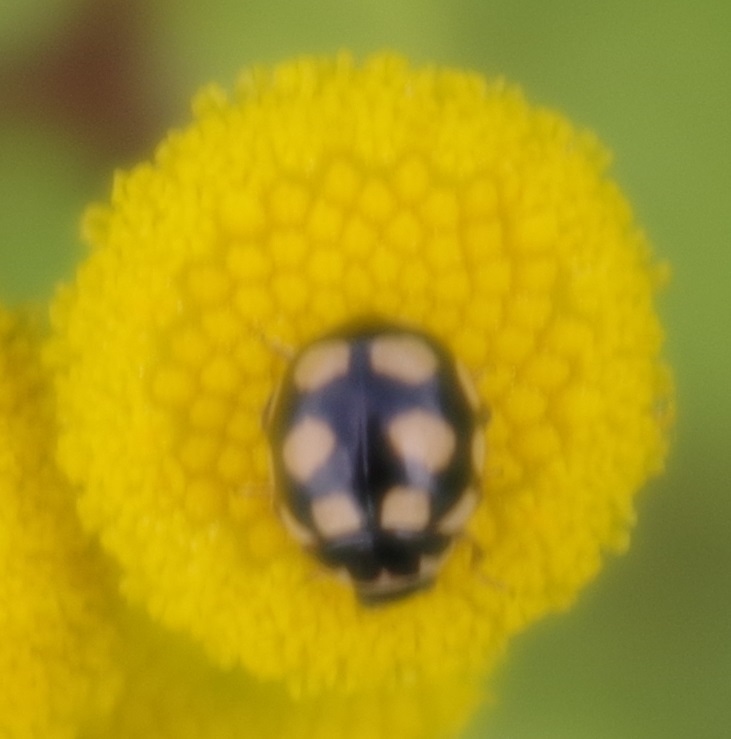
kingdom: Animalia
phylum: Arthropoda
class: Insecta
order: Coleoptera
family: Coccinellidae
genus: Coccinula
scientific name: Coccinula quatuordecimpustulata
